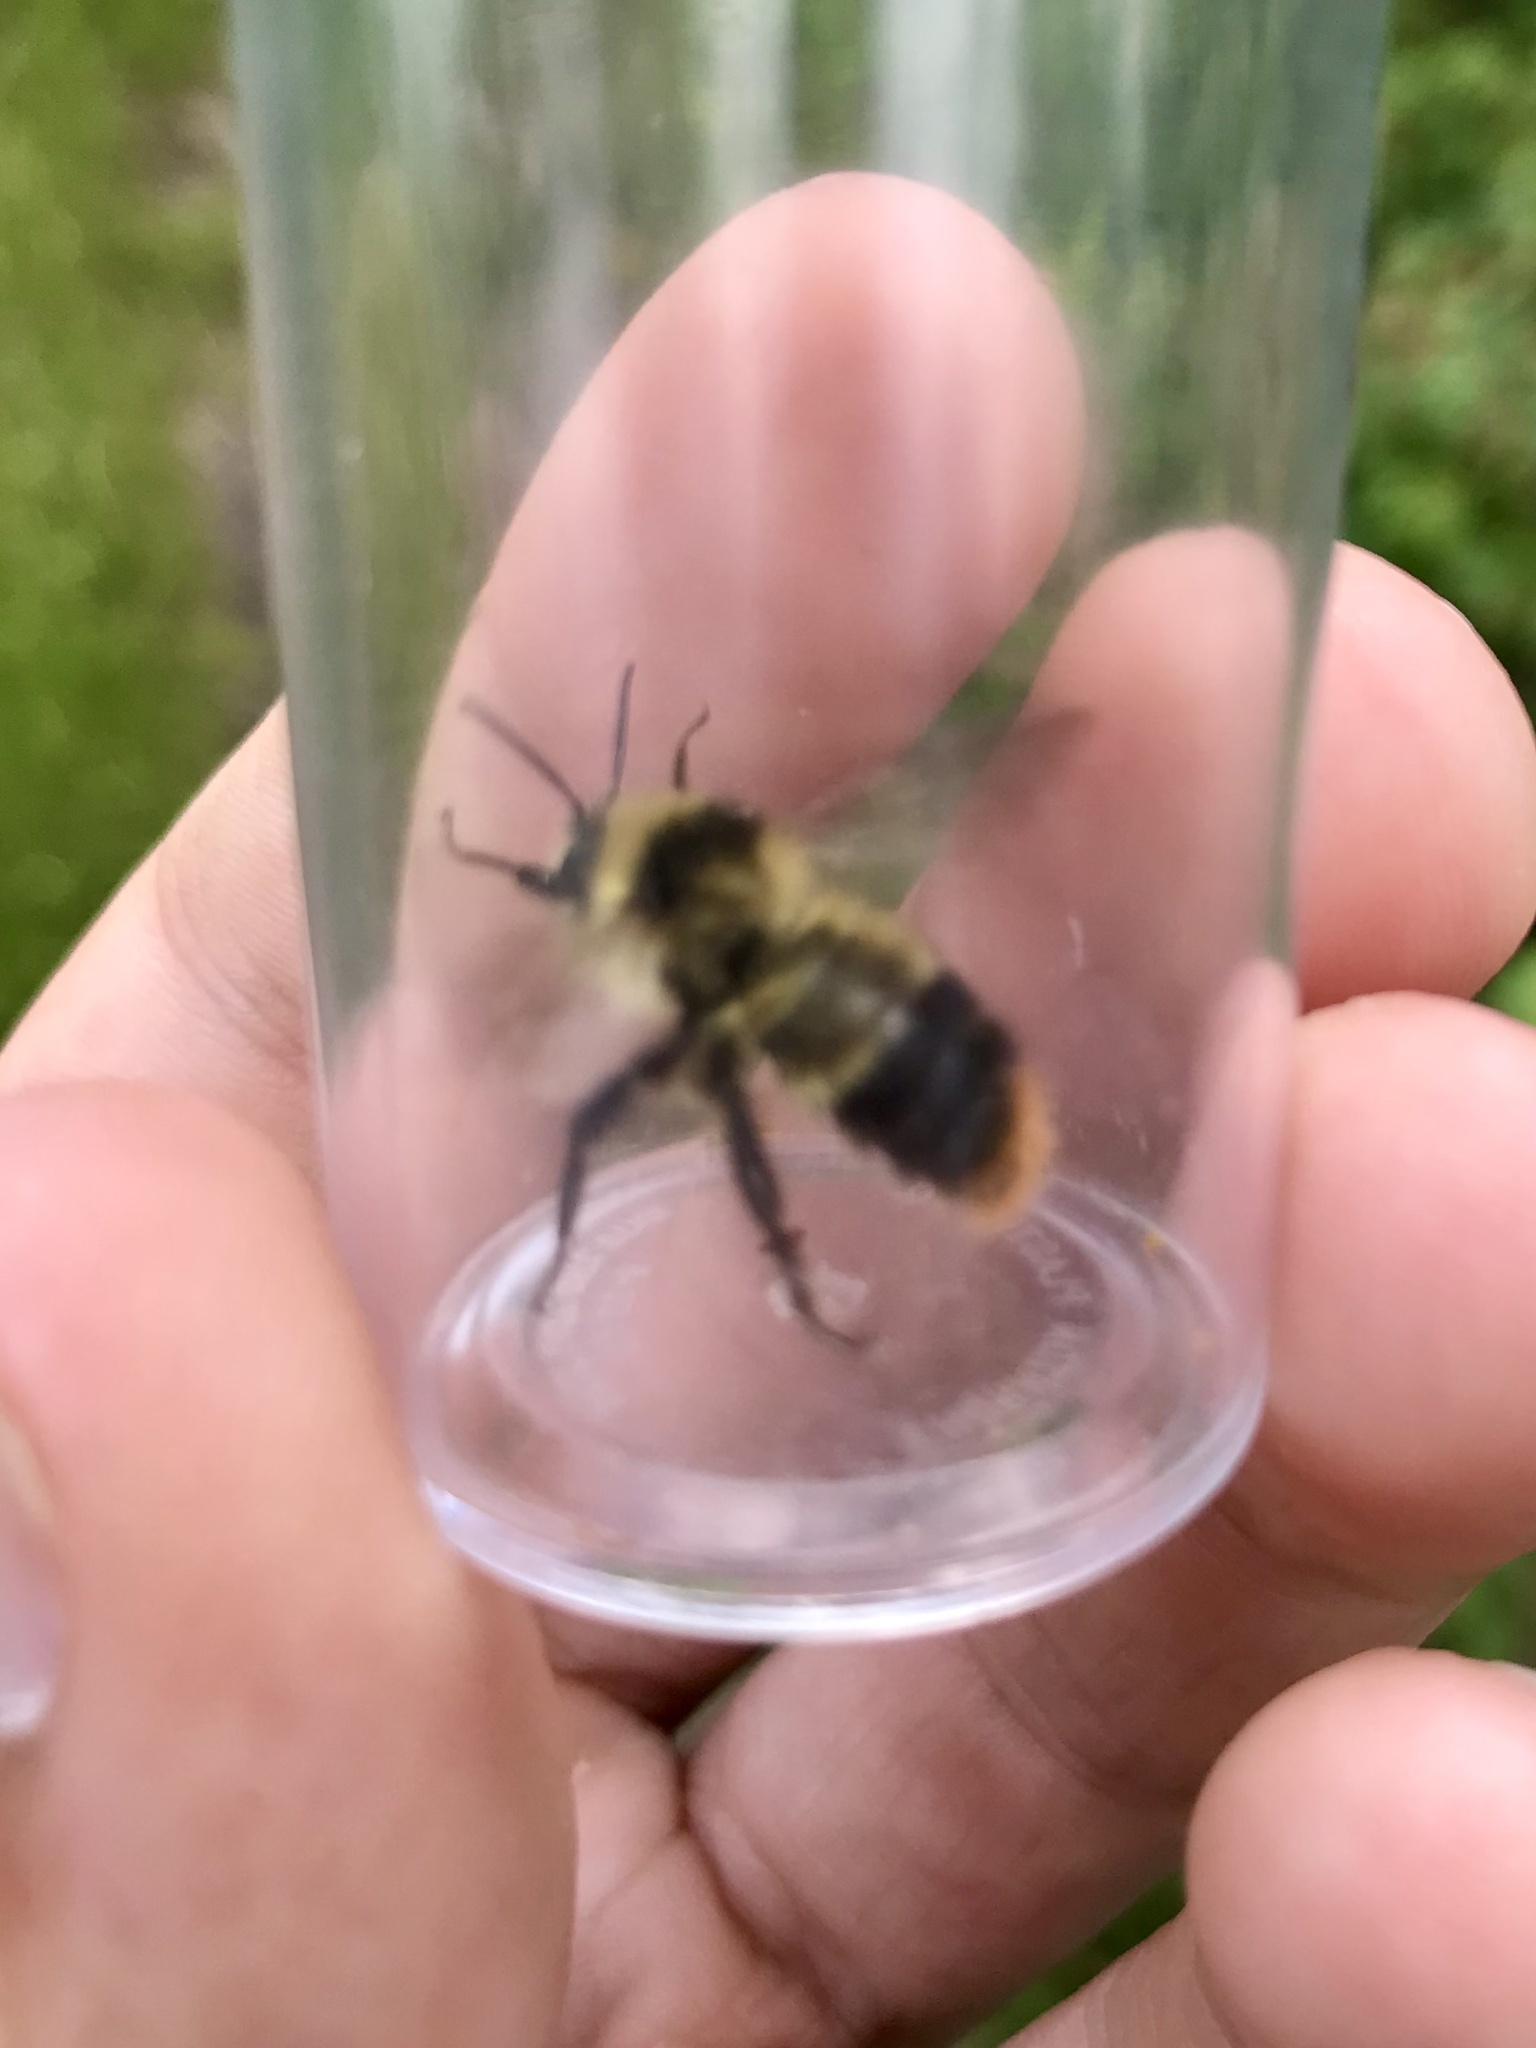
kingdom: Animalia
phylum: Arthropoda
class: Insecta
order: Hymenoptera
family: Apidae
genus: Bombus
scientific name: Bombus frigidus
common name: Frigid bumble bee
